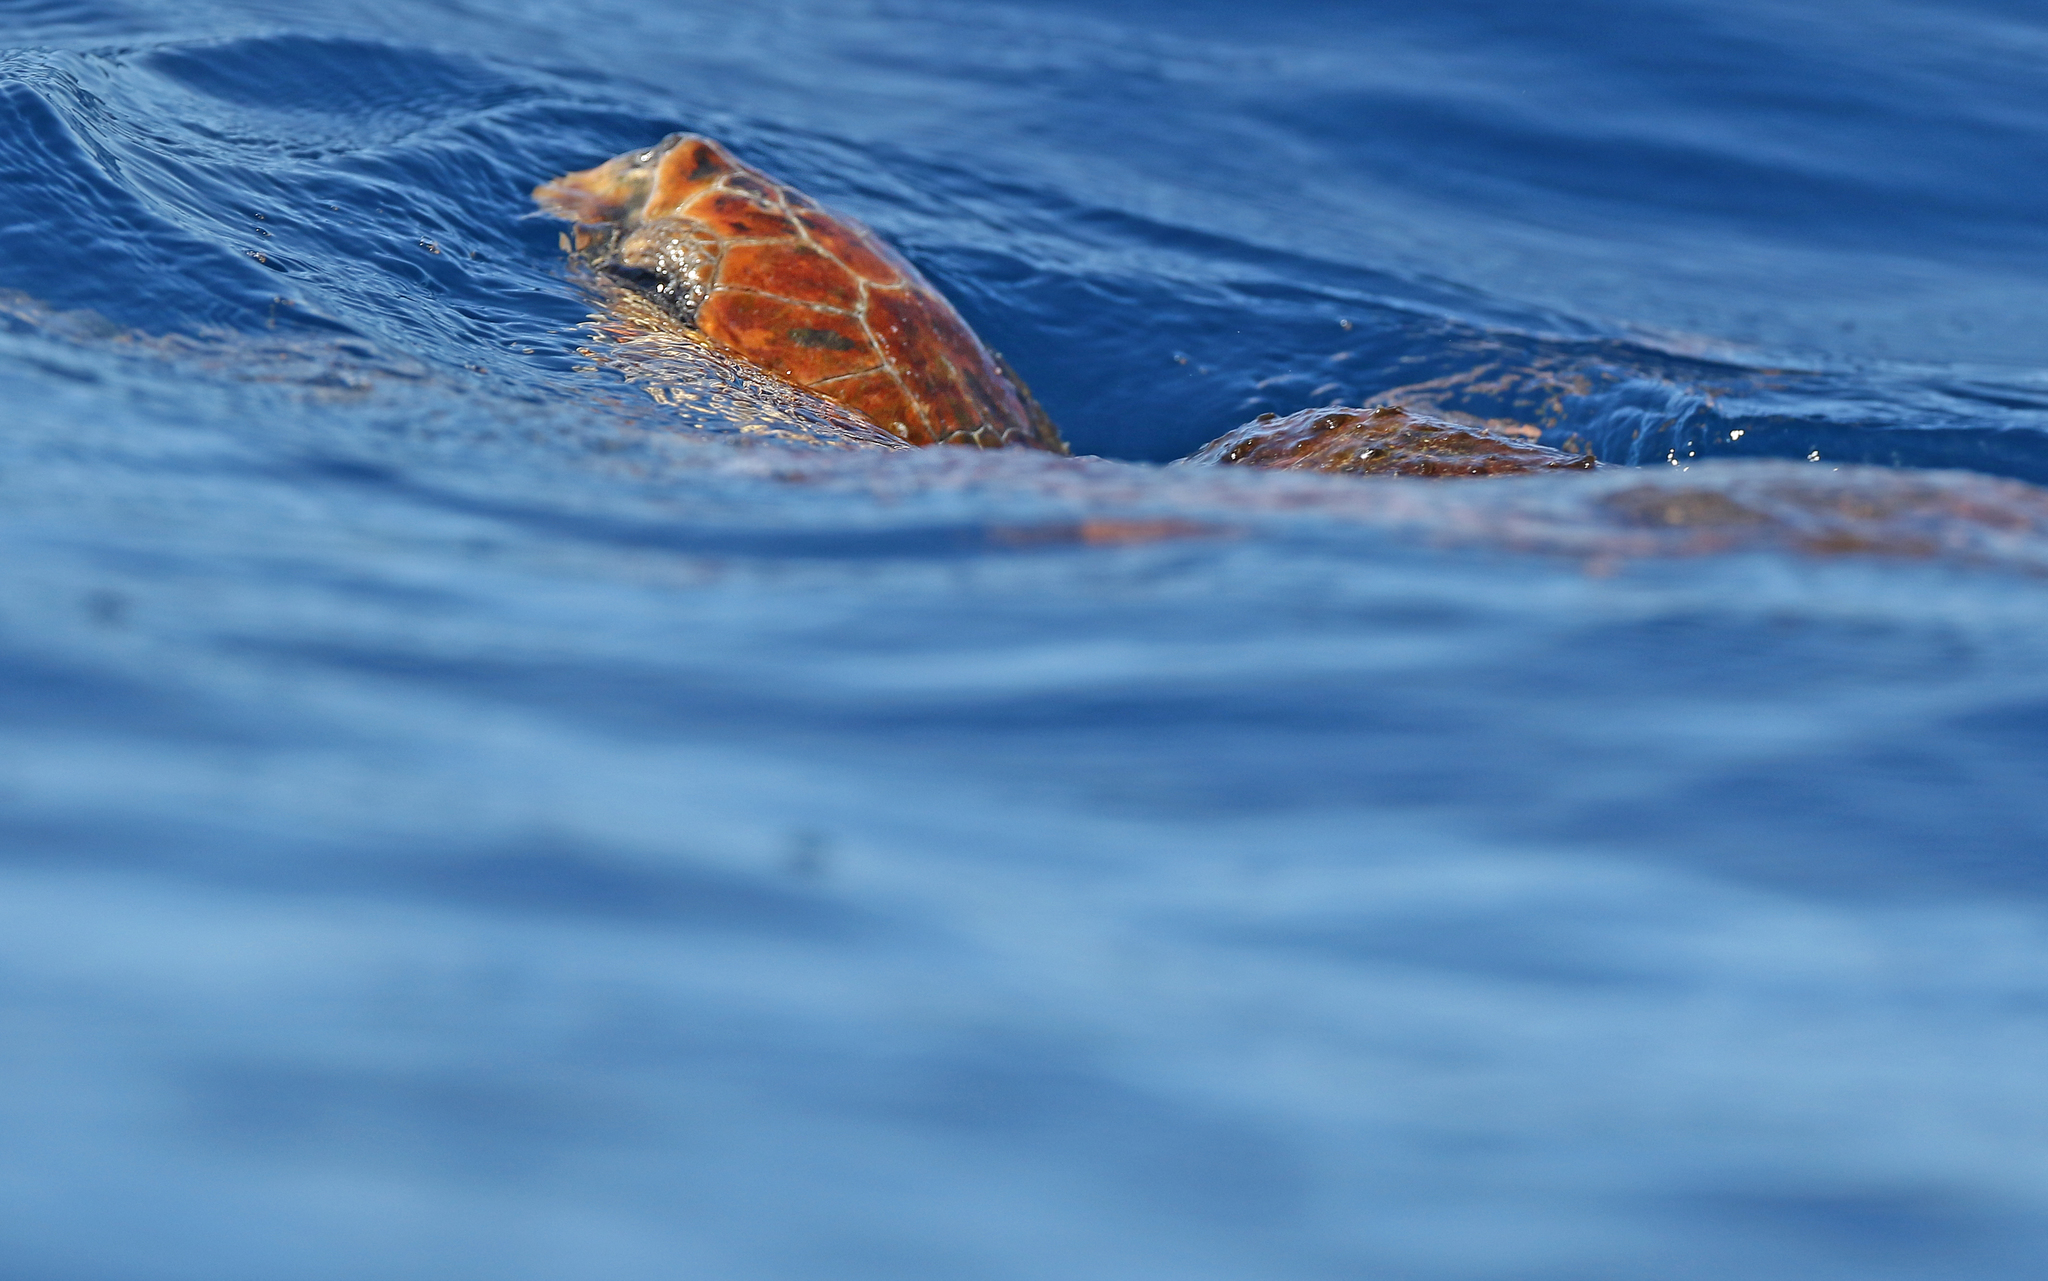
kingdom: Animalia
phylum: Chordata
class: Testudines
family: Cheloniidae
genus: Caretta
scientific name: Caretta caretta
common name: Loggerhead sea turtle
